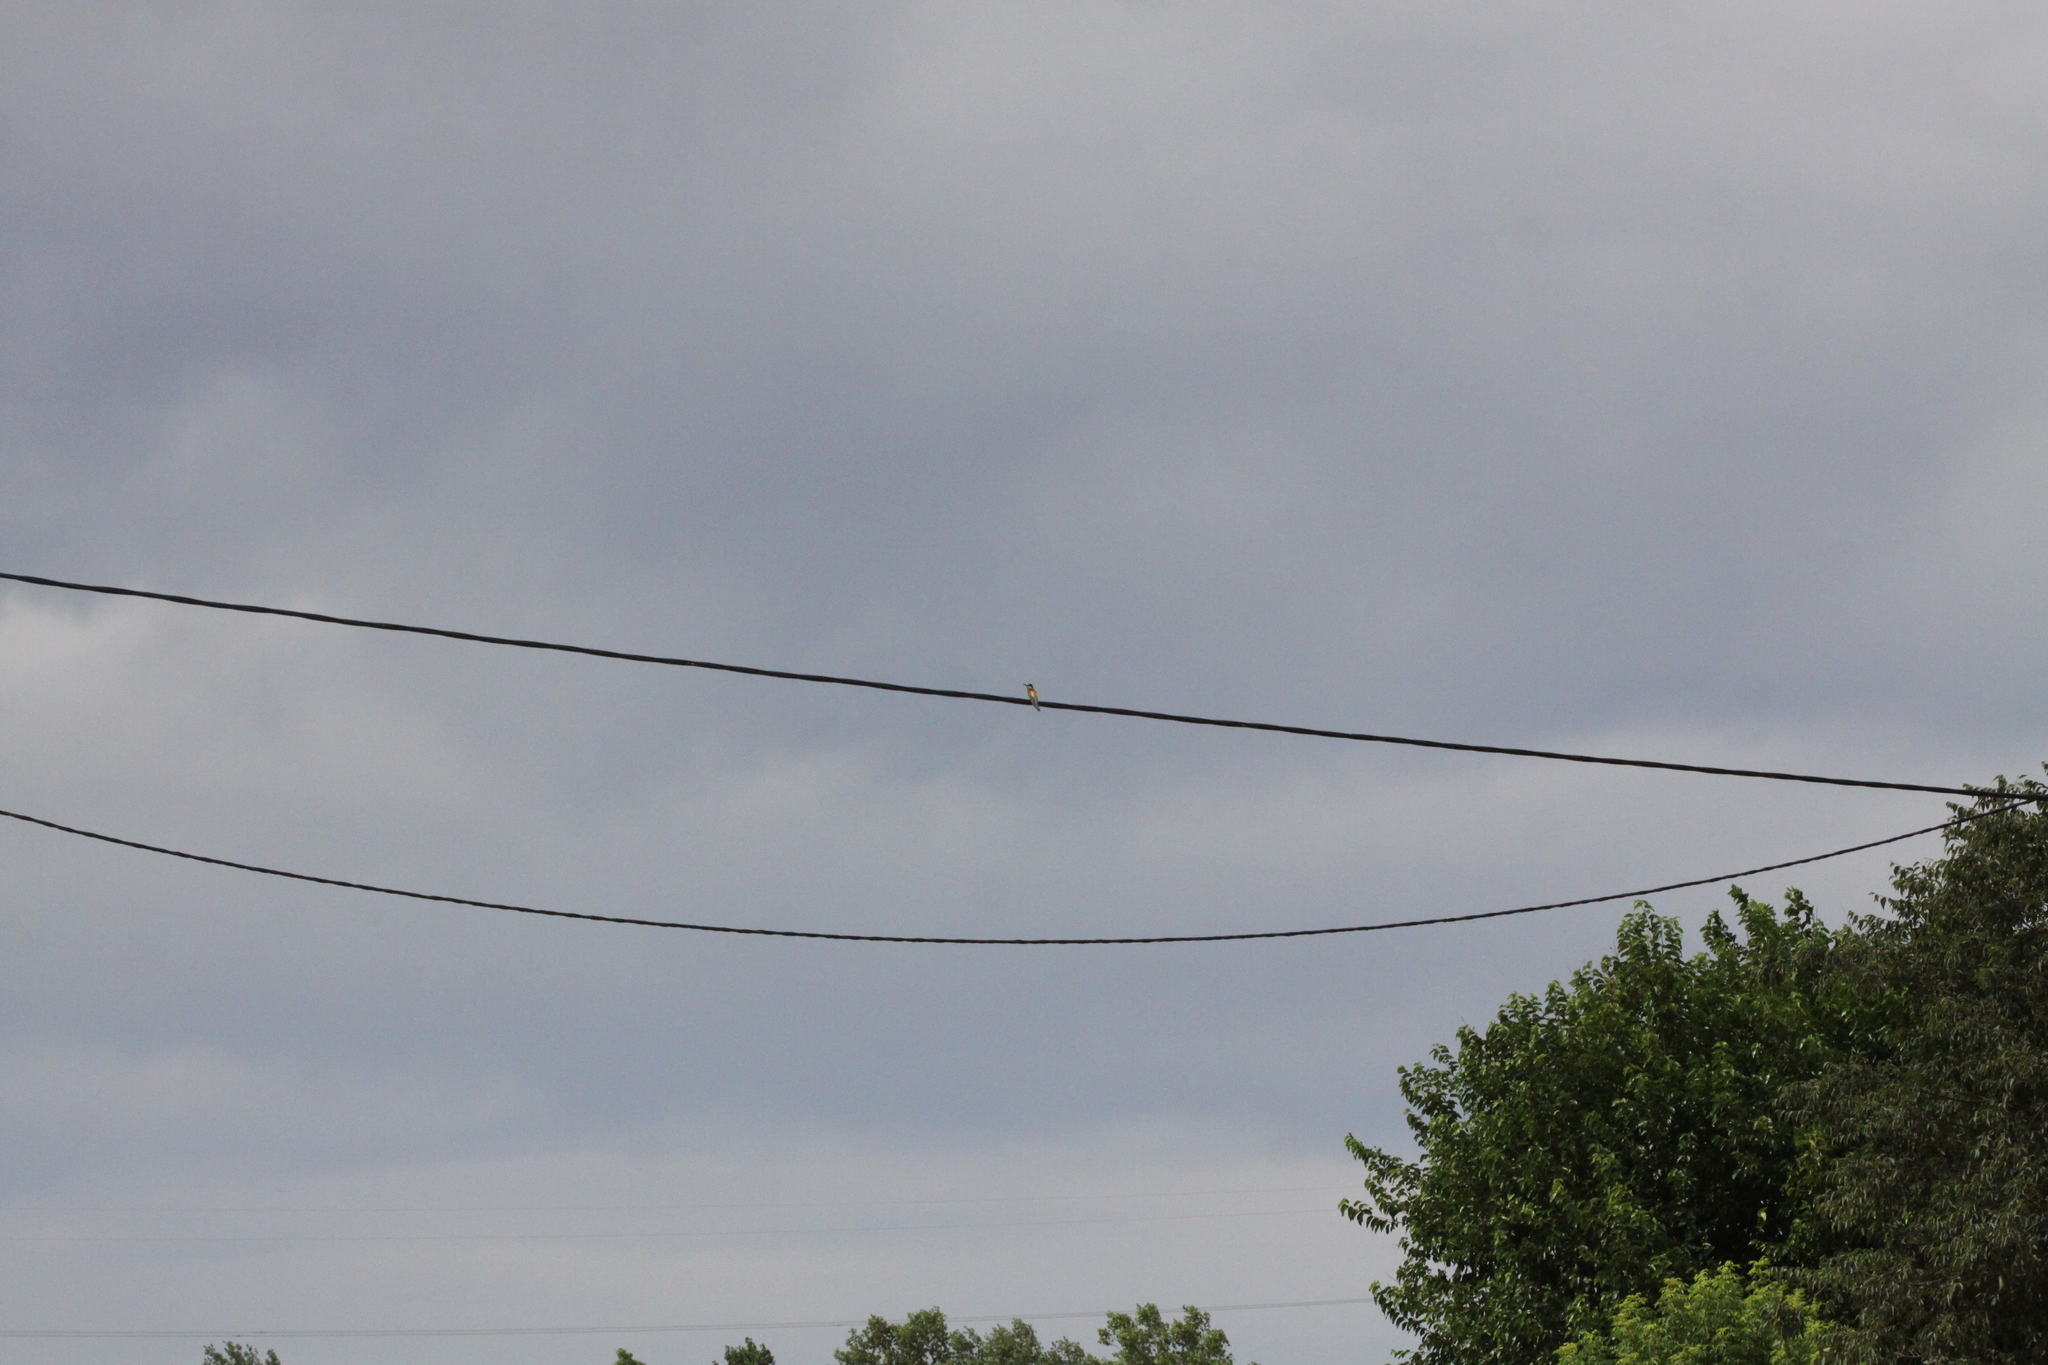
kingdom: Animalia
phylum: Chordata
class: Aves
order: Coraciiformes
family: Meropidae
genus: Merops
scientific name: Merops apiaster
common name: European bee-eater
